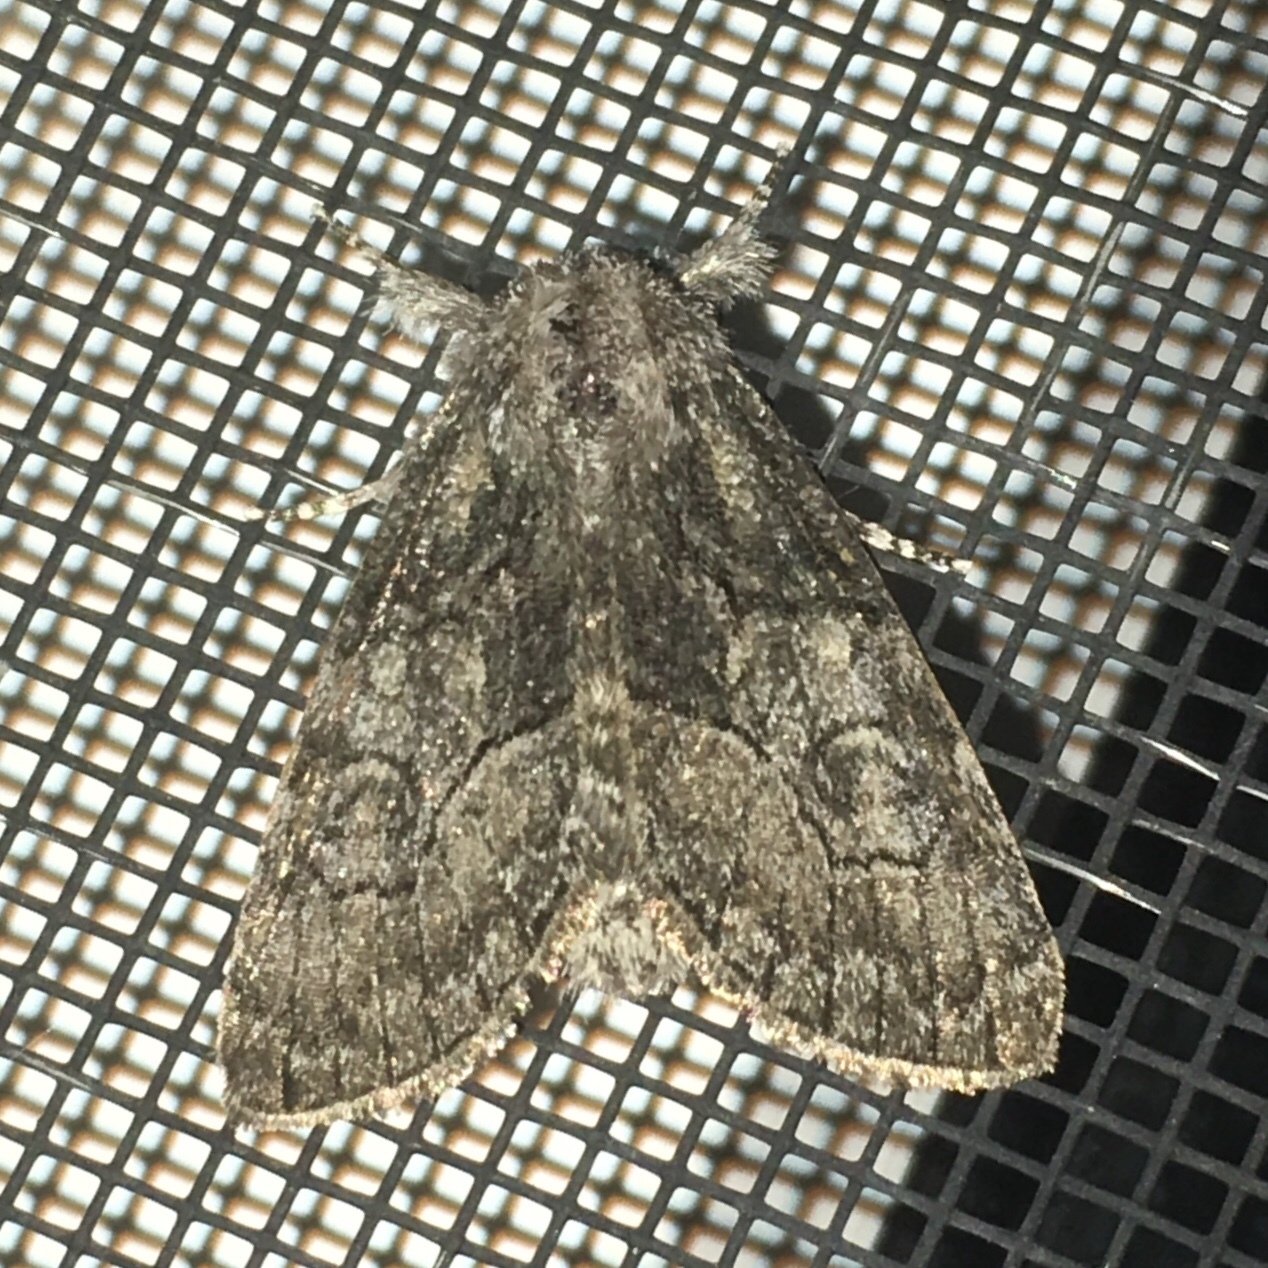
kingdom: Animalia
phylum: Arthropoda
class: Insecta
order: Lepidoptera
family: Noctuidae
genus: Raphia
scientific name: Raphia frater
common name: Brother
